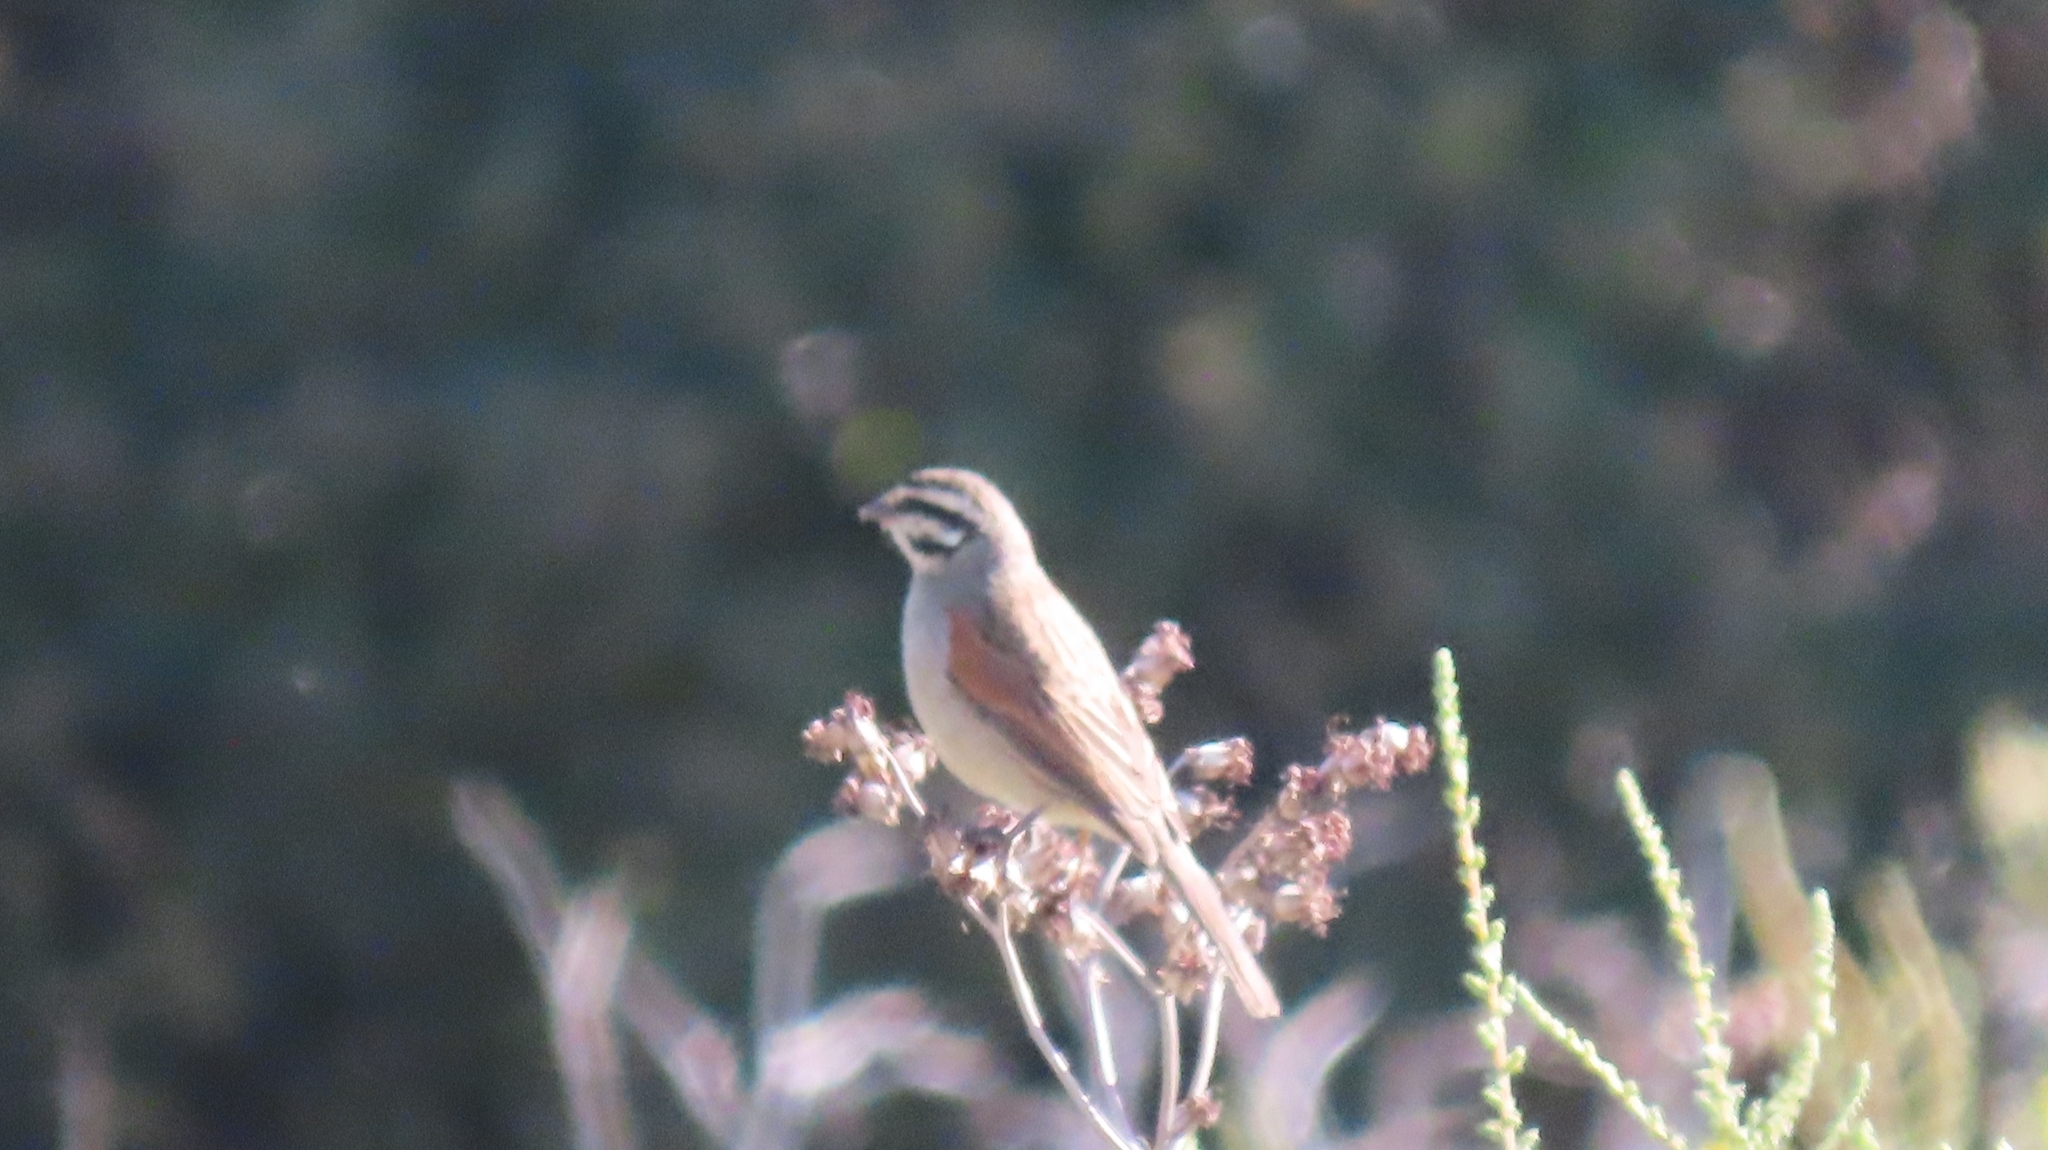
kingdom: Animalia
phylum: Chordata
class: Aves
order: Passeriformes
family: Emberizidae
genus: Emberiza
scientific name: Emberiza capensis
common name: Cape bunting
